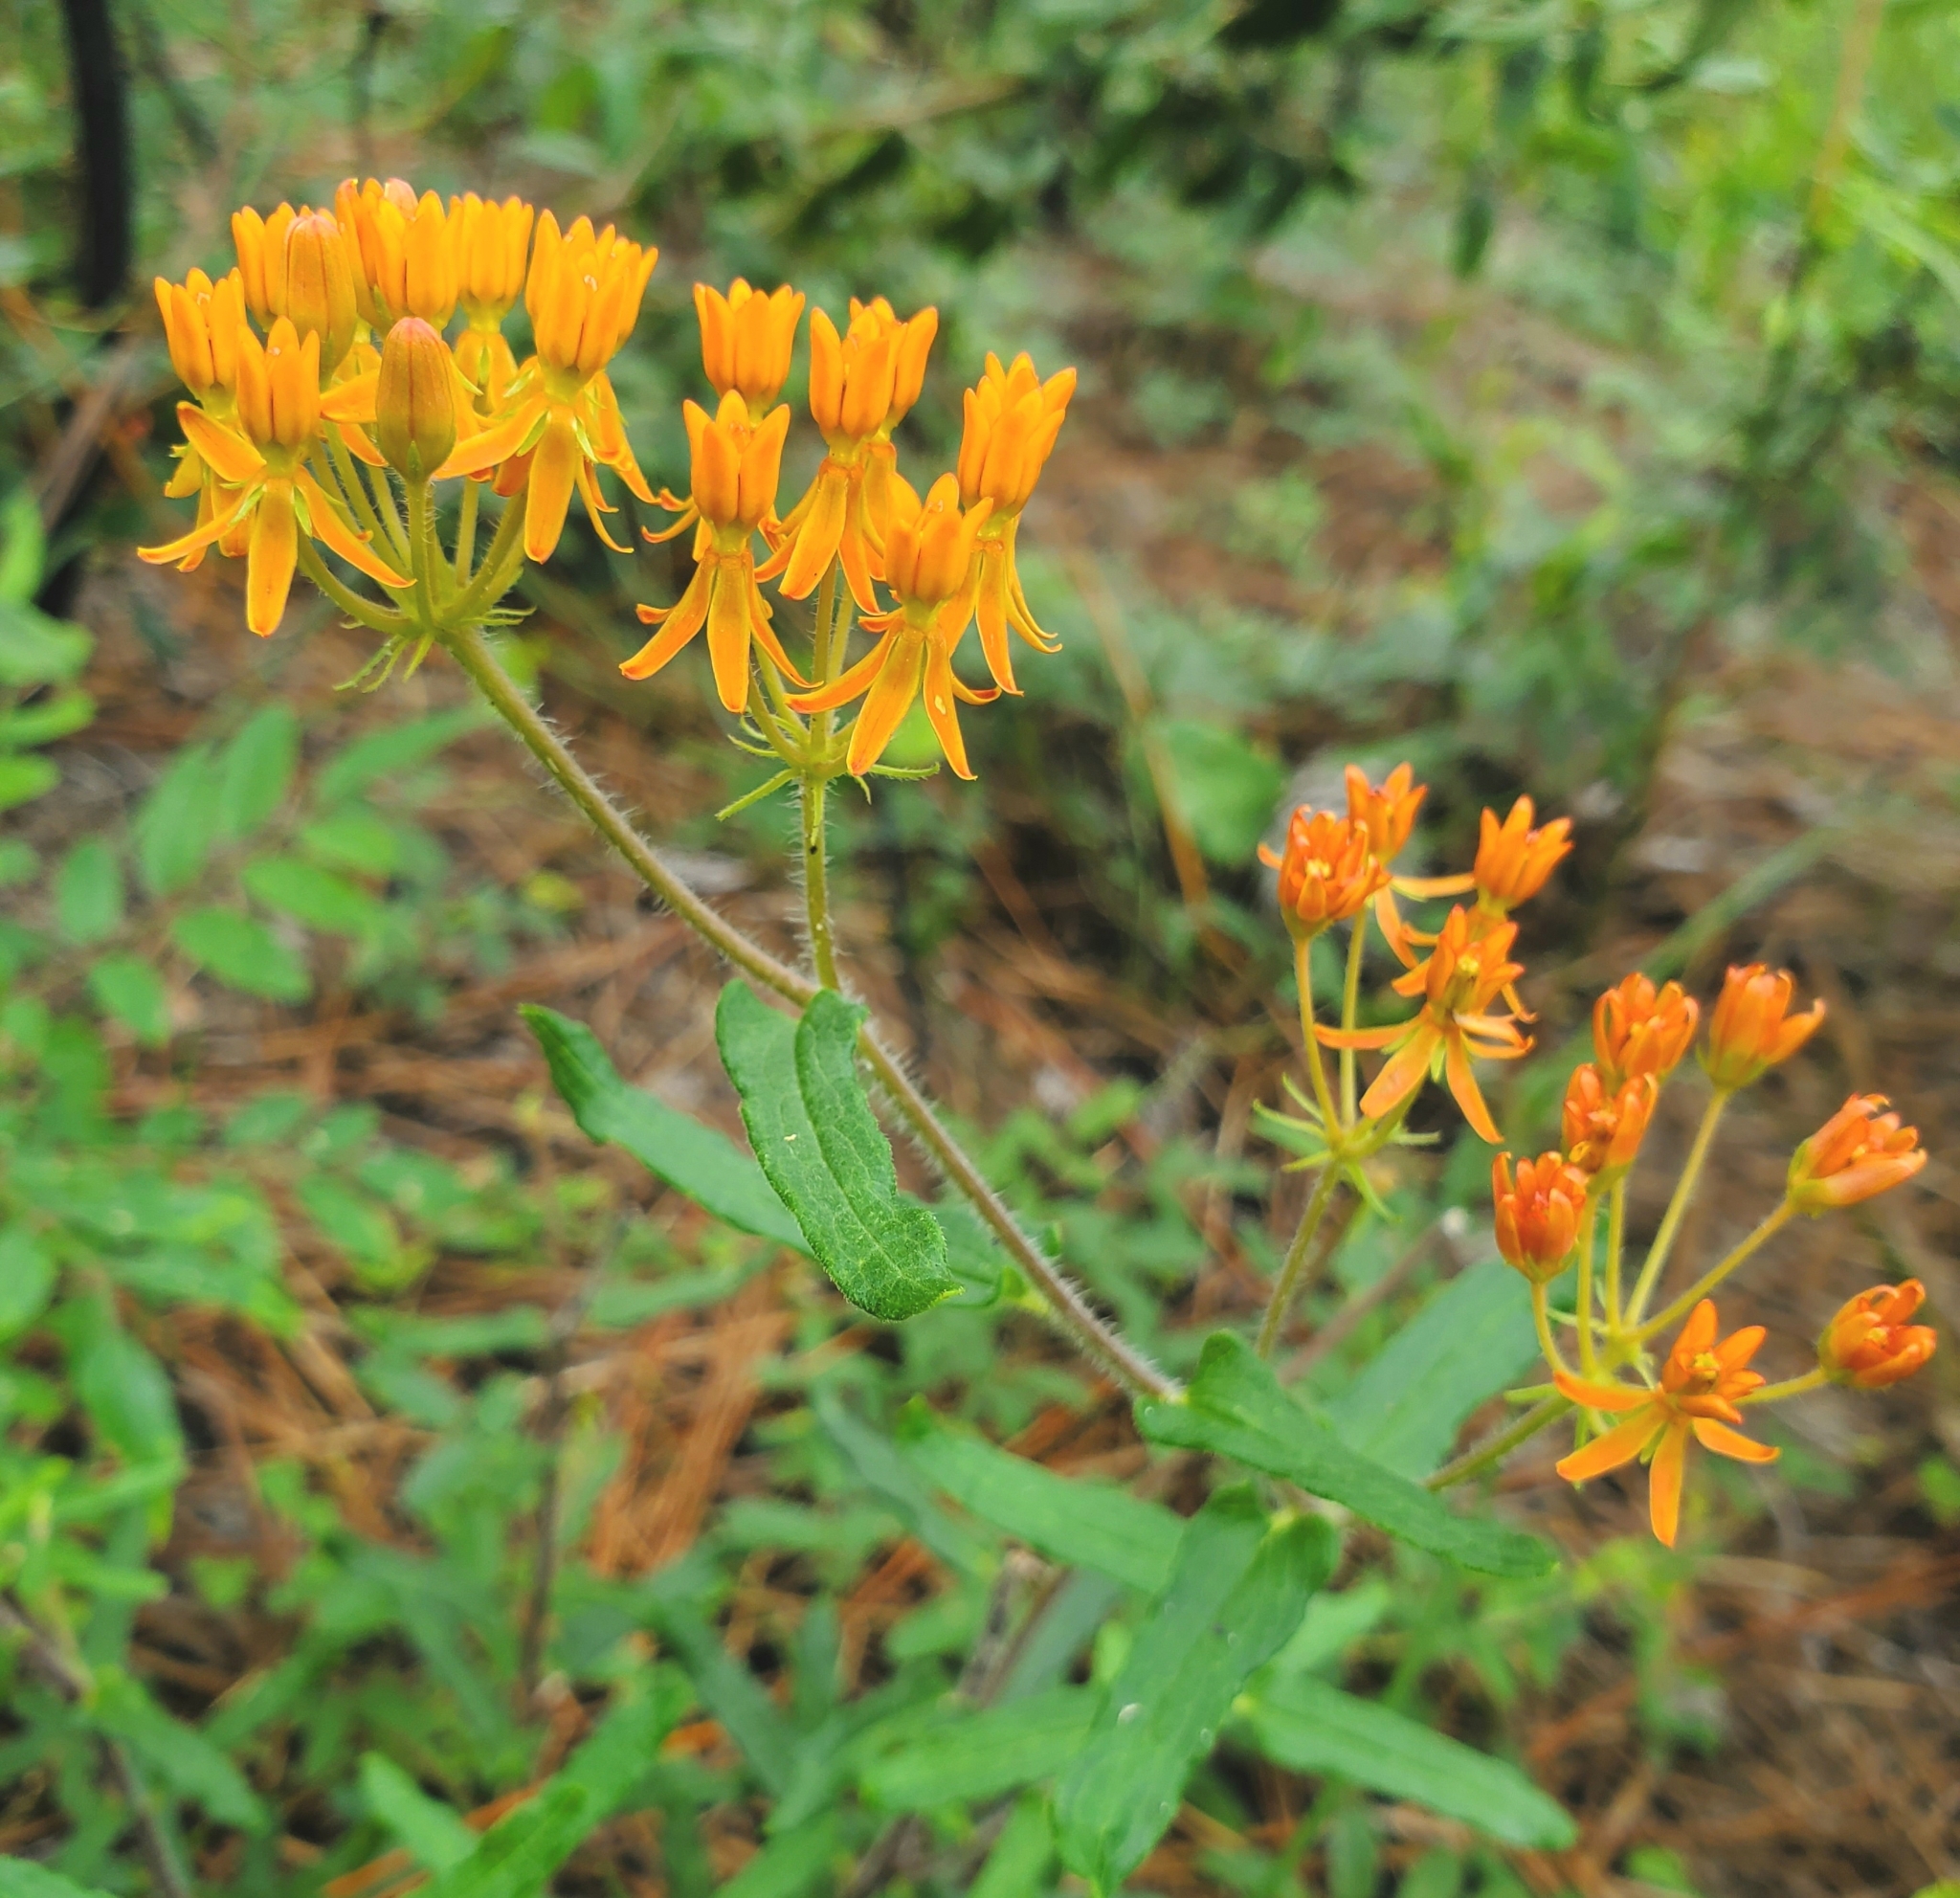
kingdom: Plantae
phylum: Tracheophyta
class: Magnoliopsida
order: Gentianales
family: Apocynaceae
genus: Asclepias
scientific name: Asclepias tuberosa
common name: Butterfly milkweed
